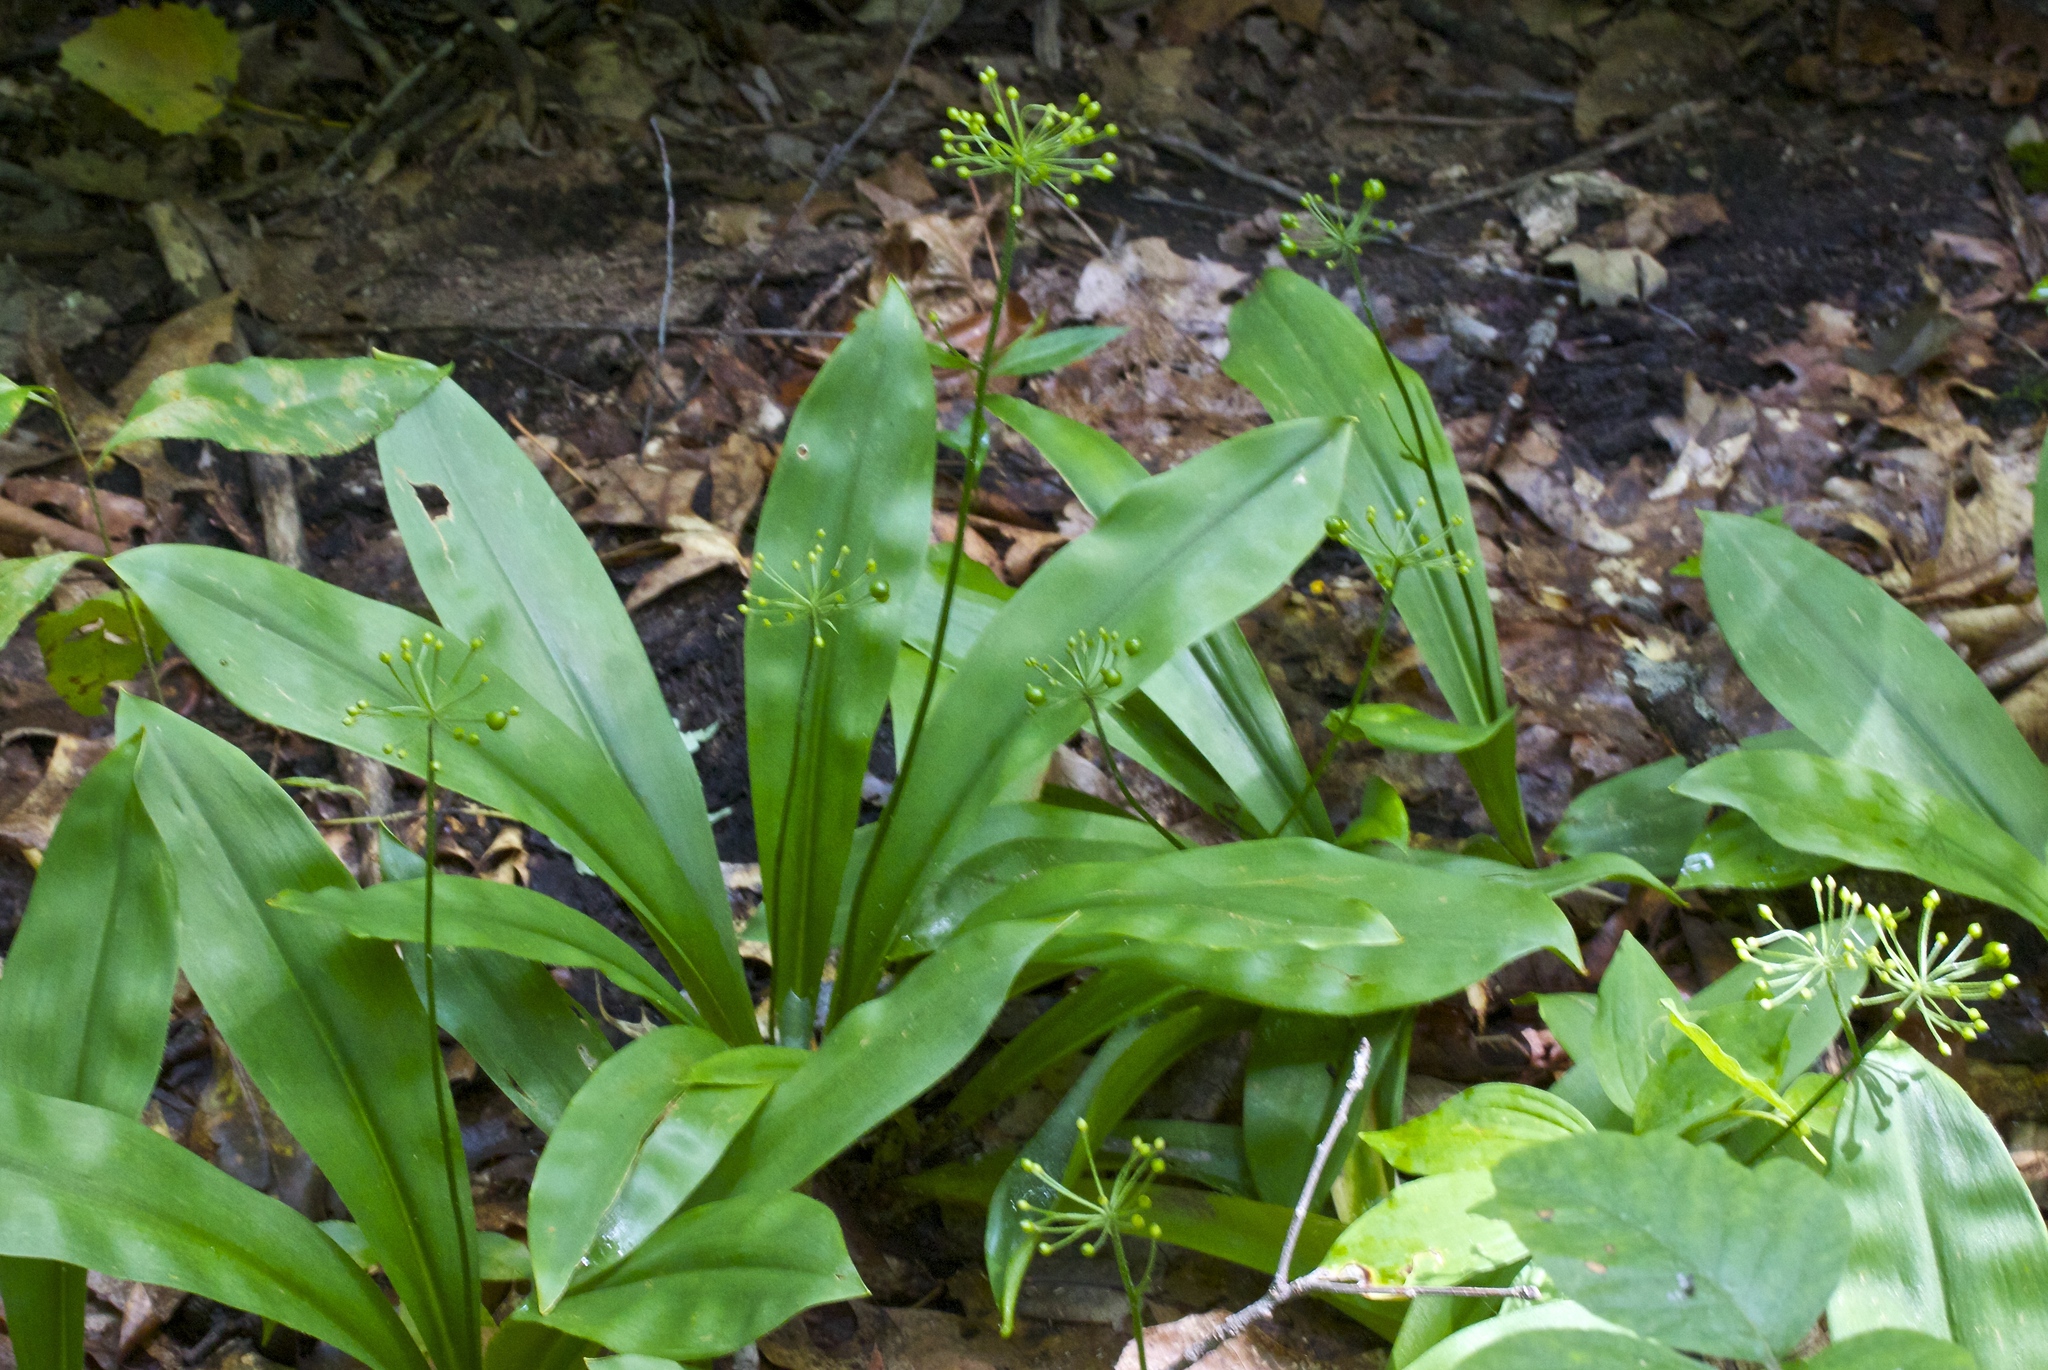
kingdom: Plantae
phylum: Tracheophyta
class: Liliopsida
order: Liliales
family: Liliaceae
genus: Clintonia
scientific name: Clintonia umbellulata
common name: Speckle wood-lily
